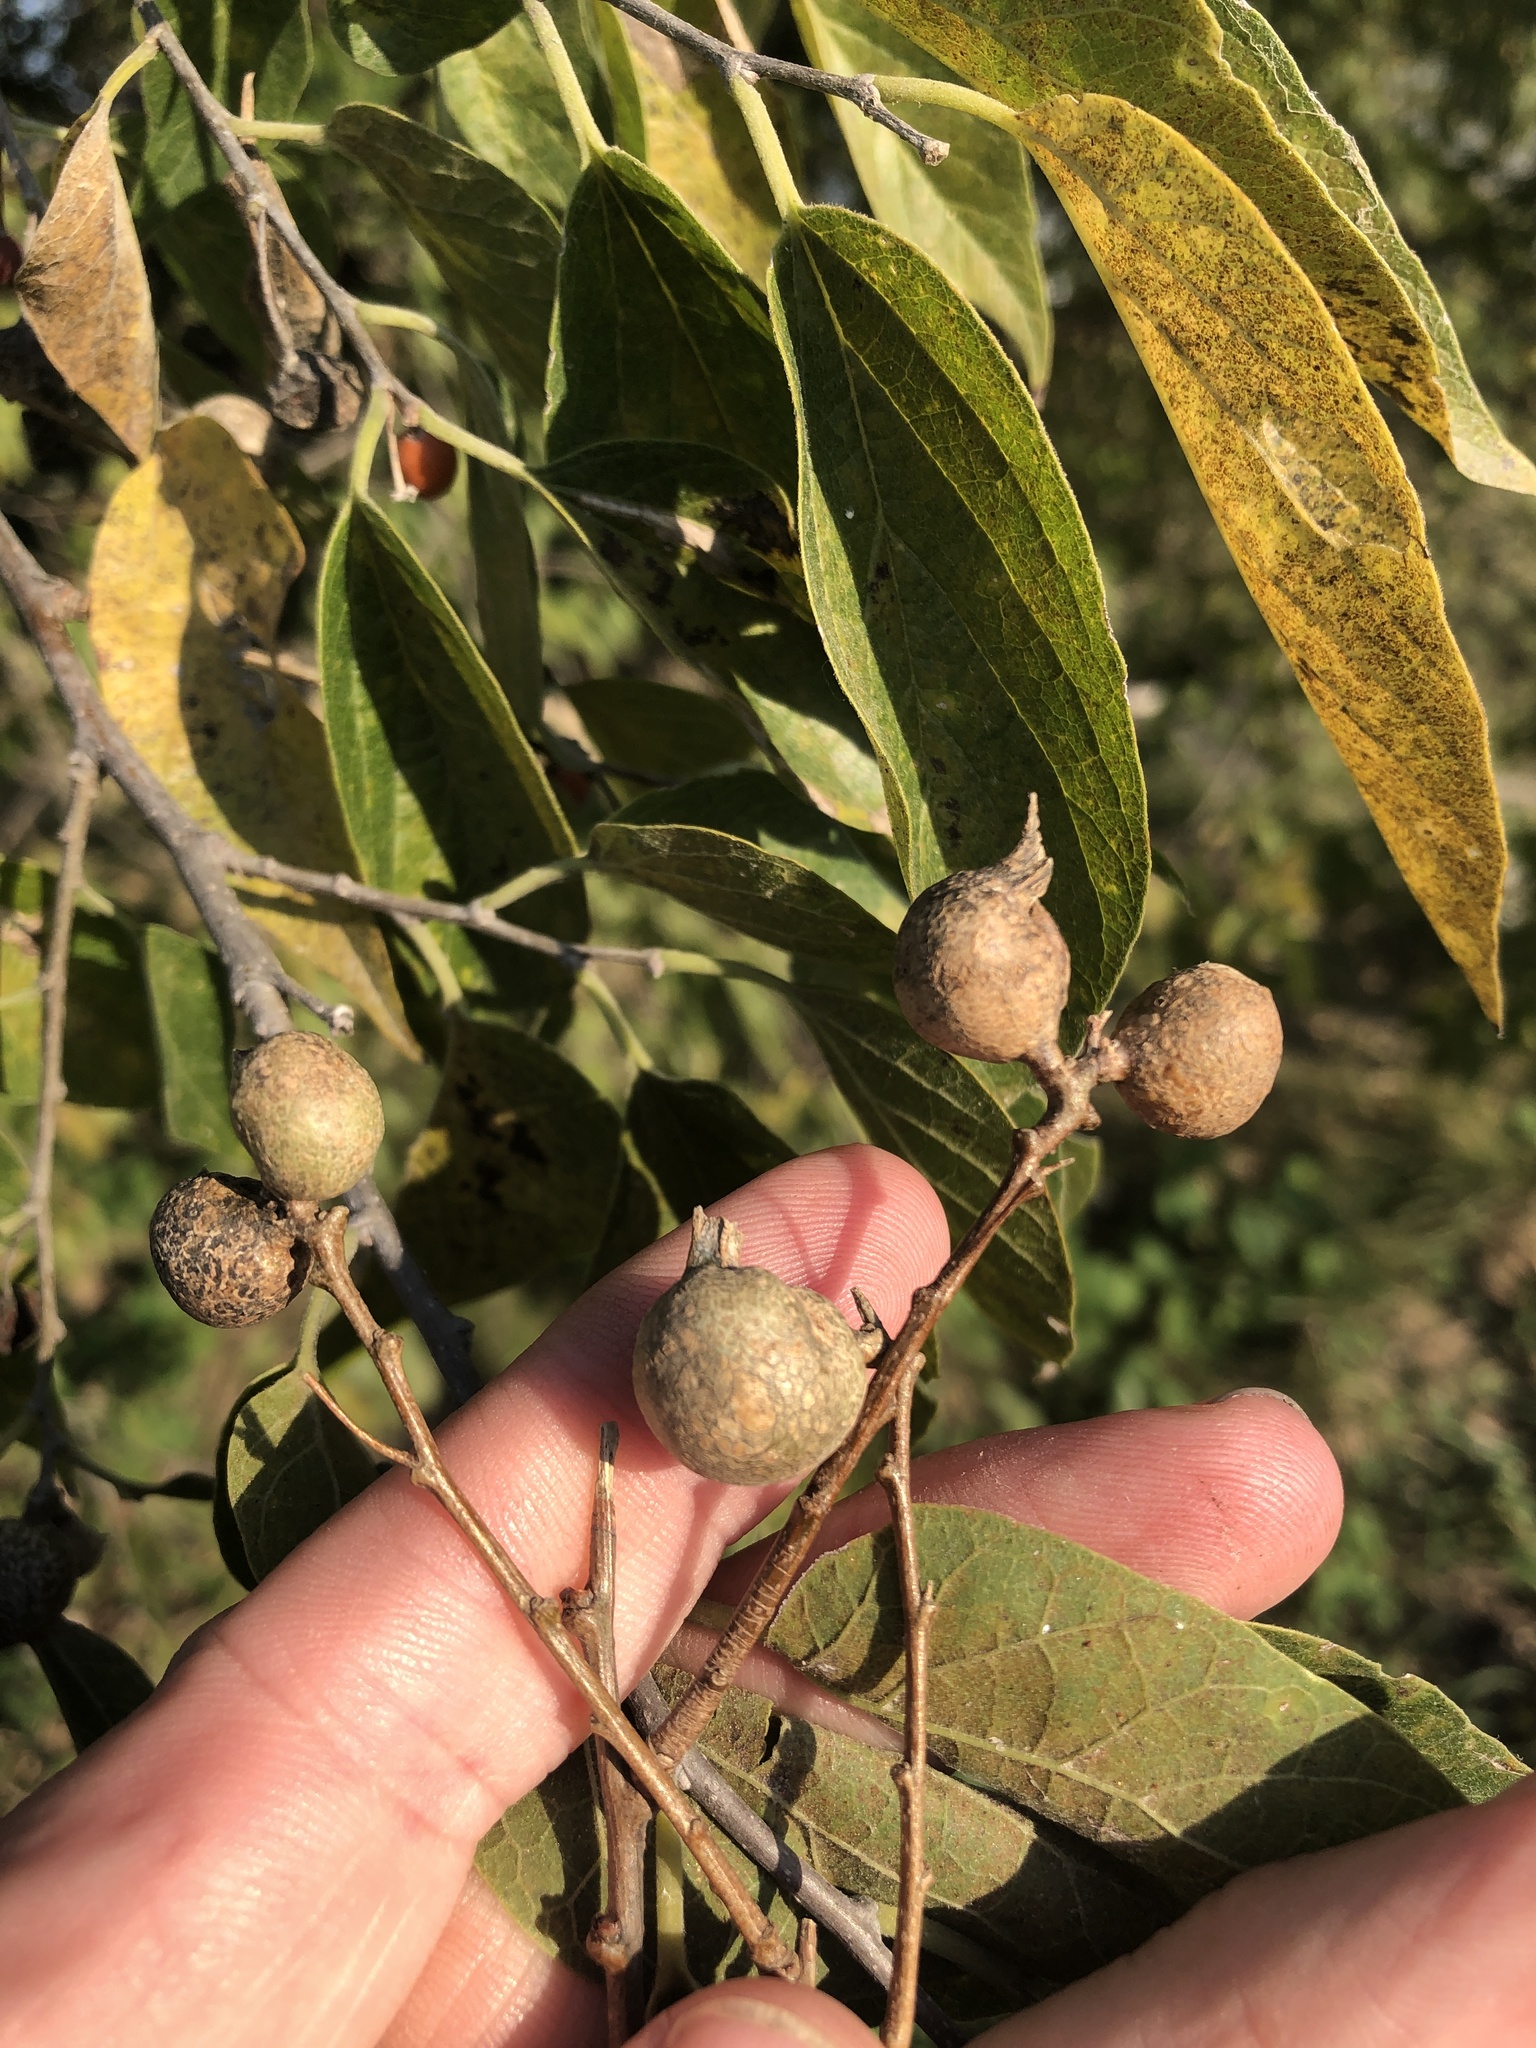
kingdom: Animalia
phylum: Arthropoda
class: Insecta
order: Hemiptera
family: Aphalaridae
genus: Pachypsylla
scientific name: Pachypsylla venusta
